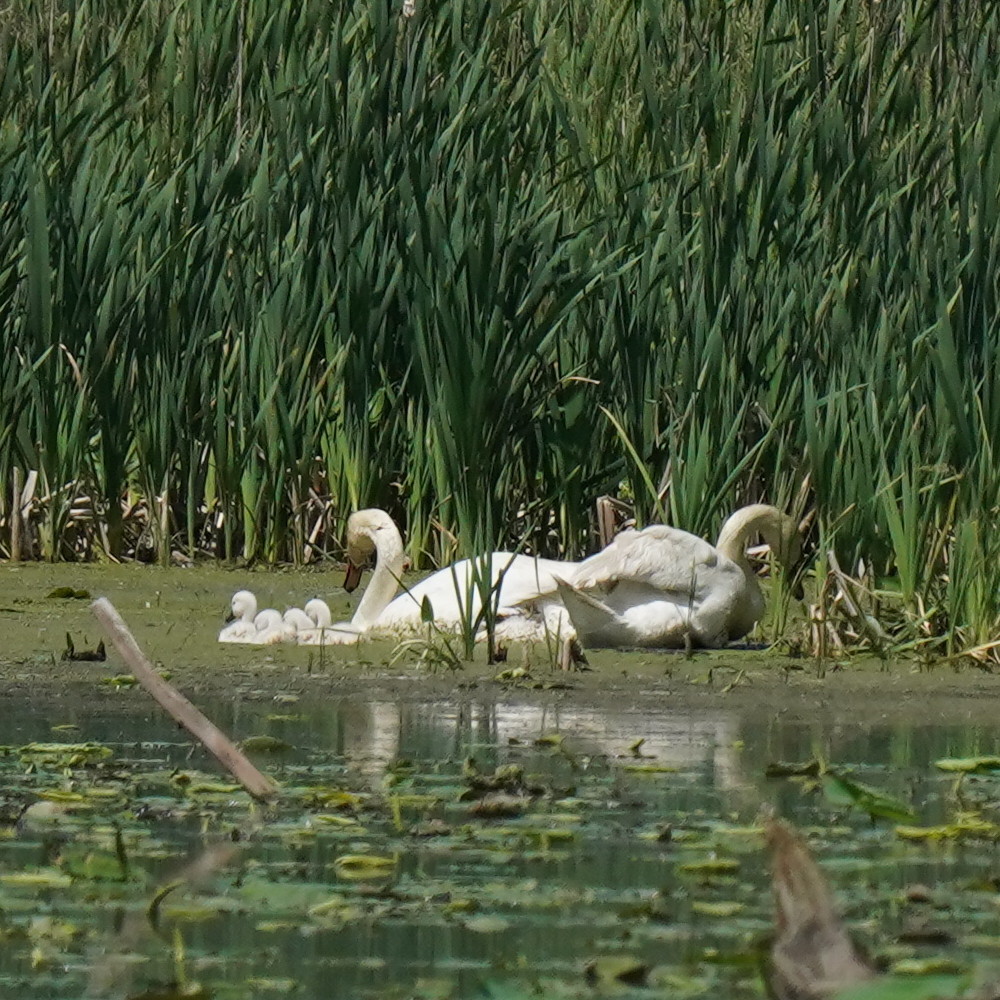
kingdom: Animalia
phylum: Chordata
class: Aves
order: Anseriformes
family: Anatidae
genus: Cygnus
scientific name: Cygnus olor
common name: Mute swan
